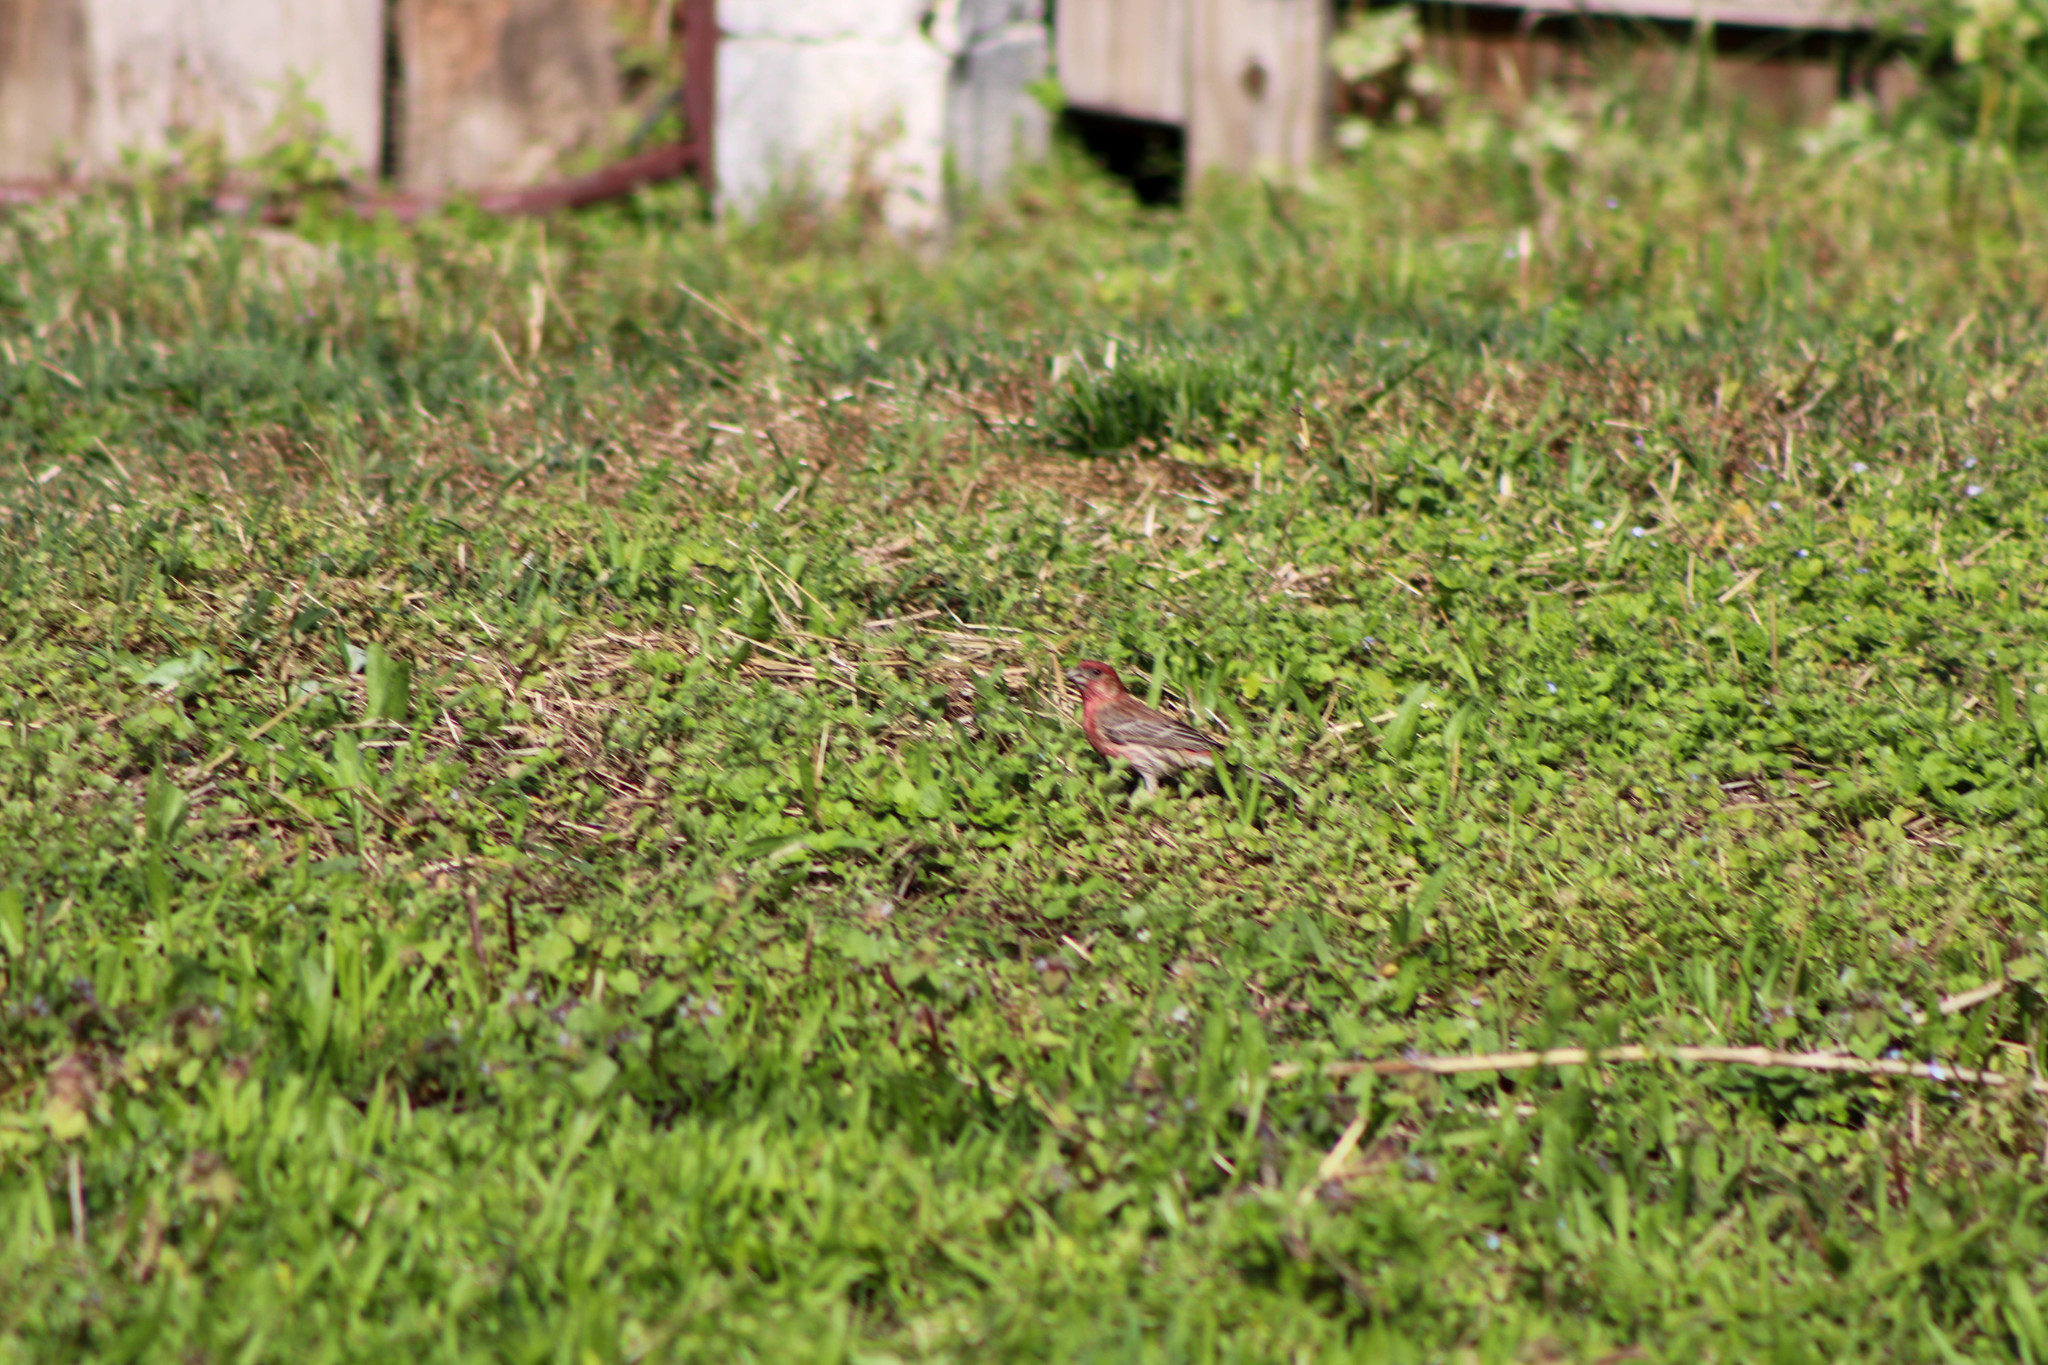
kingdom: Animalia
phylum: Chordata
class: Aves
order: Passeriformes
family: Fringillidae
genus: Haemorhous
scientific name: Haemorhous mexicanus
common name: House finch
